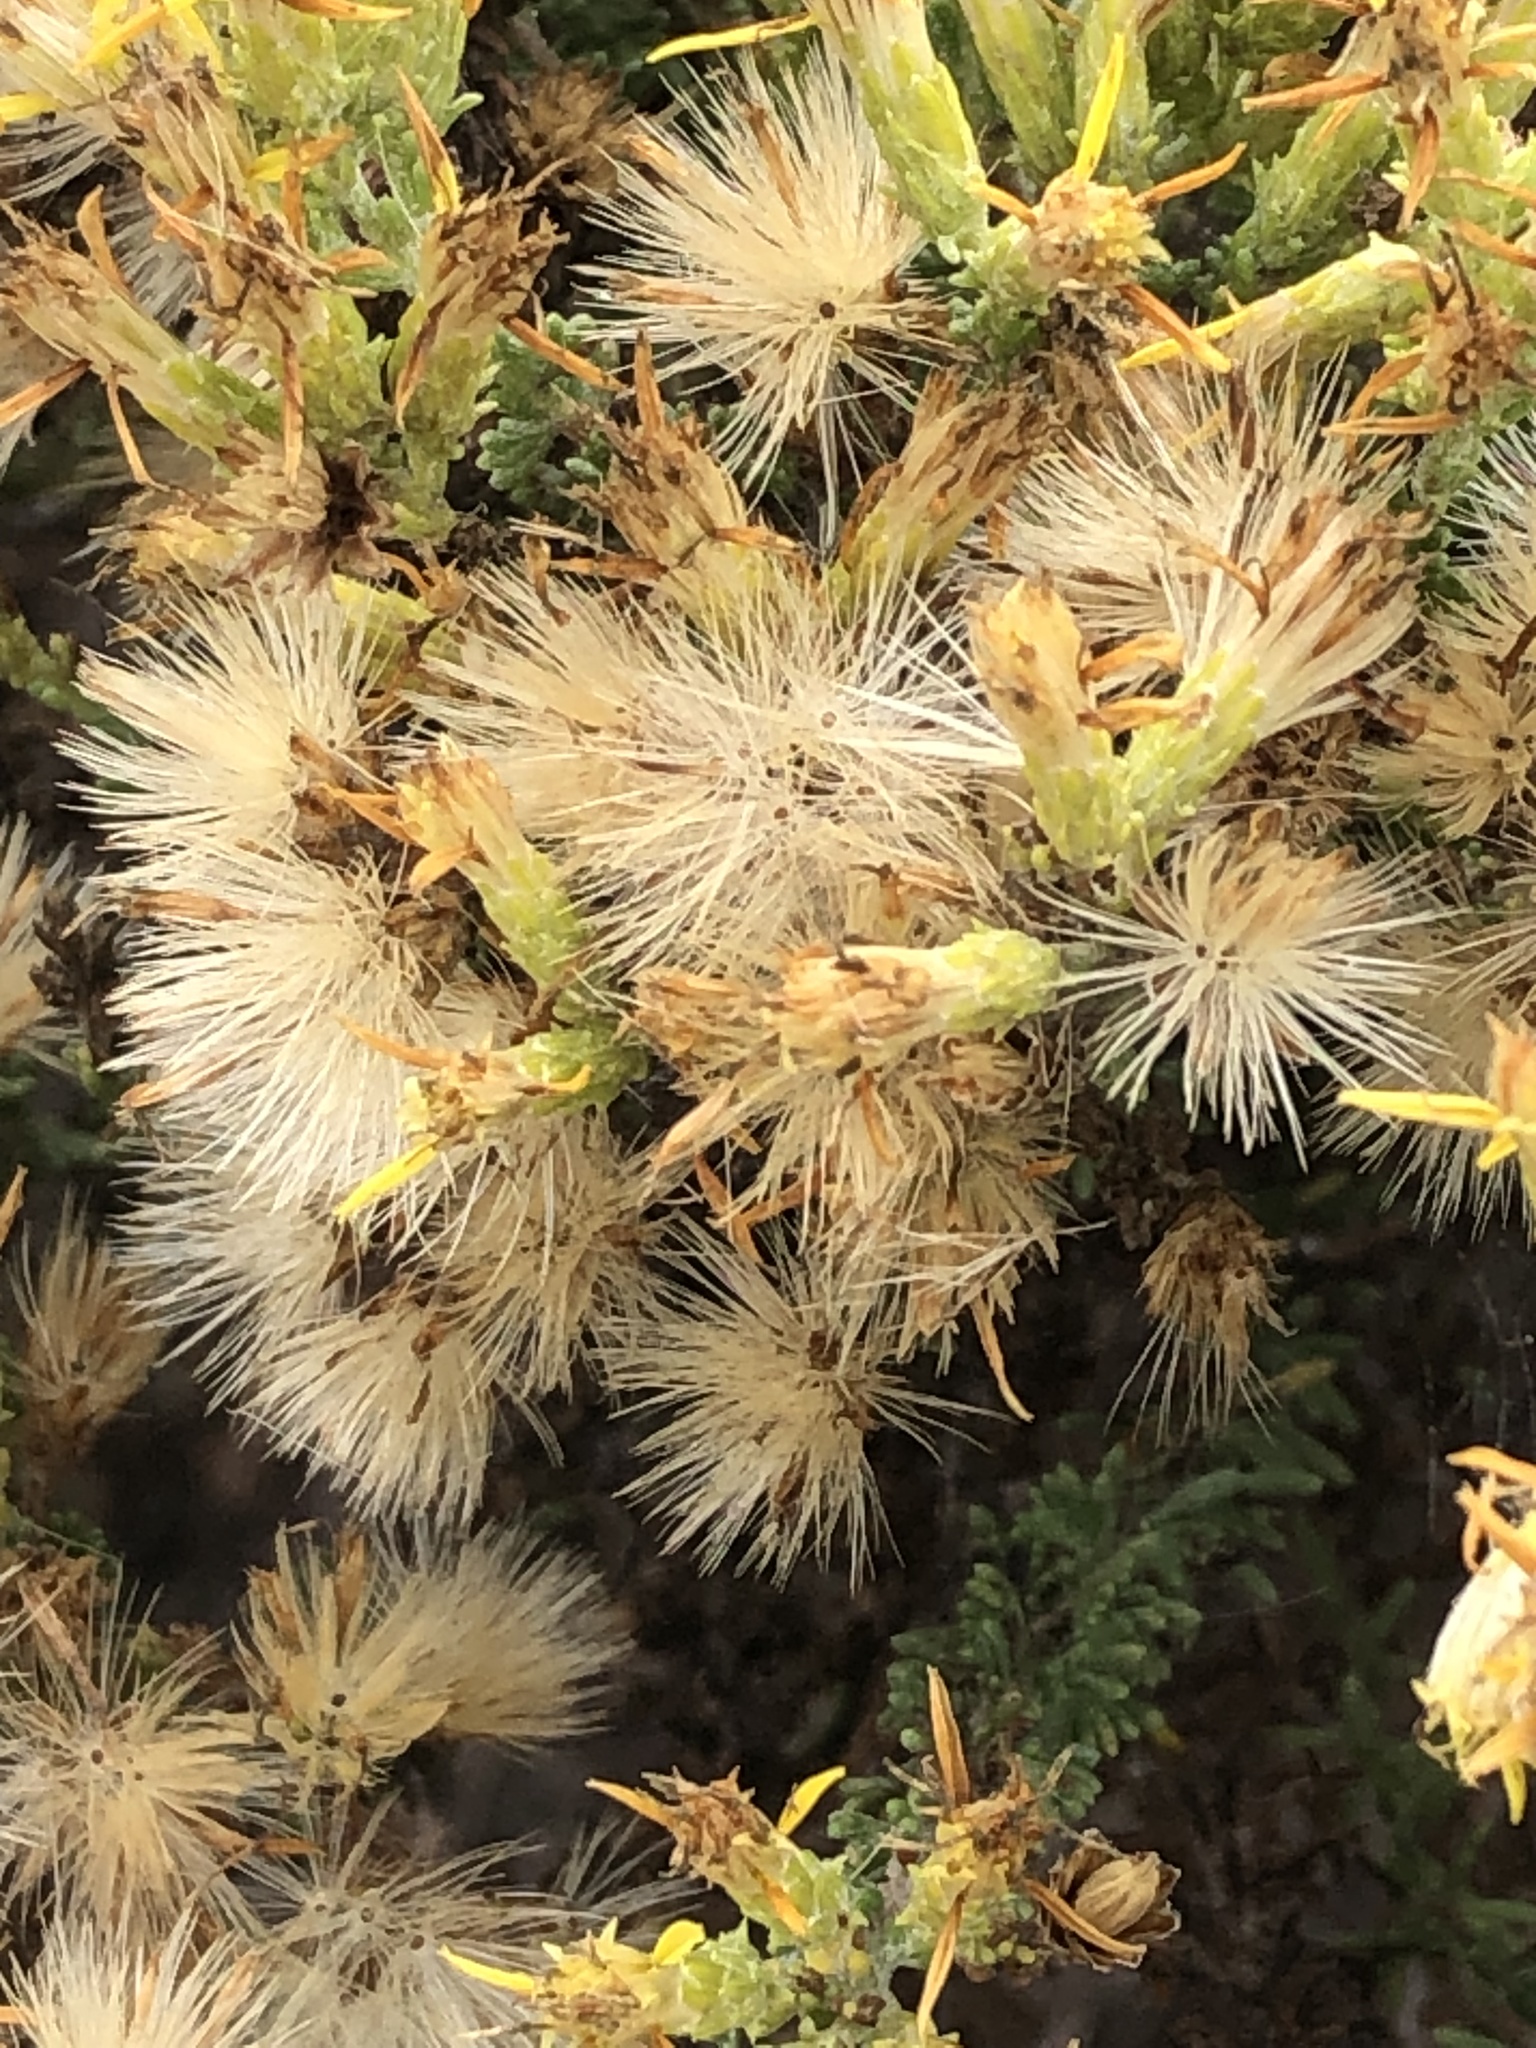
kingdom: Plantae
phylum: Tracheophyta
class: Magnoliopsida
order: Asterales
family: Asteraceae
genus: Ericameria
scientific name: Ericameria ericoides
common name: California goldenbush
